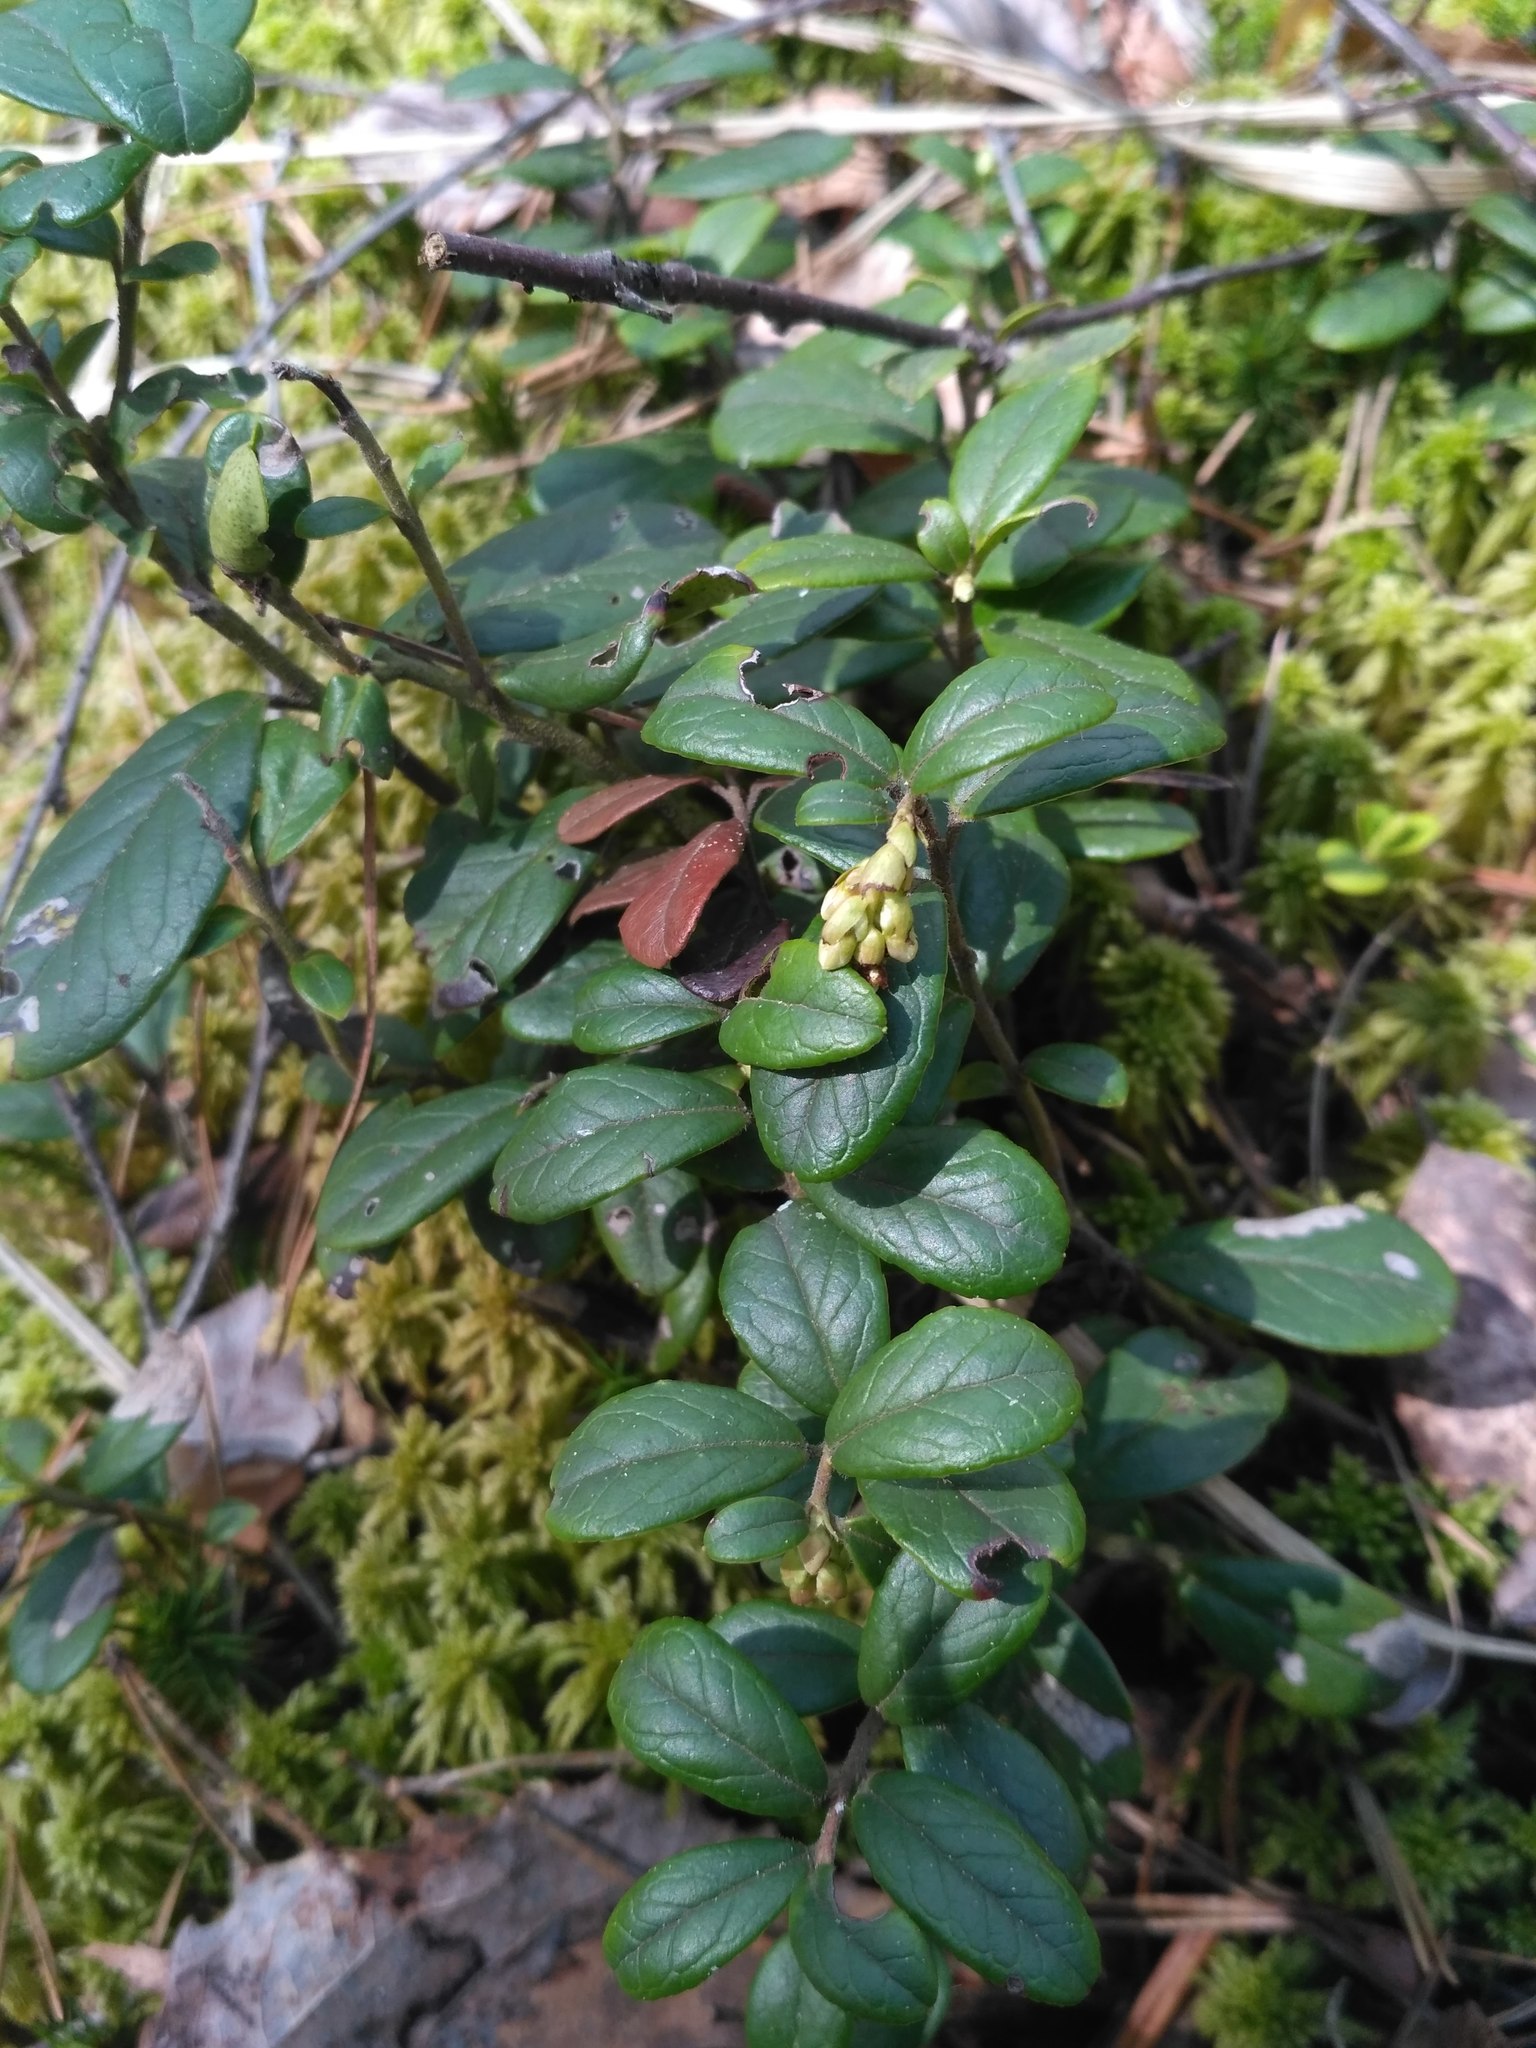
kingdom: Plantae
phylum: Tracheophyta
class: Magnoliopsida
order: Ericales
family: Ericaceae
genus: Vaccinium
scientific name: Vaccinium vitis-idaea
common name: Cowberry
